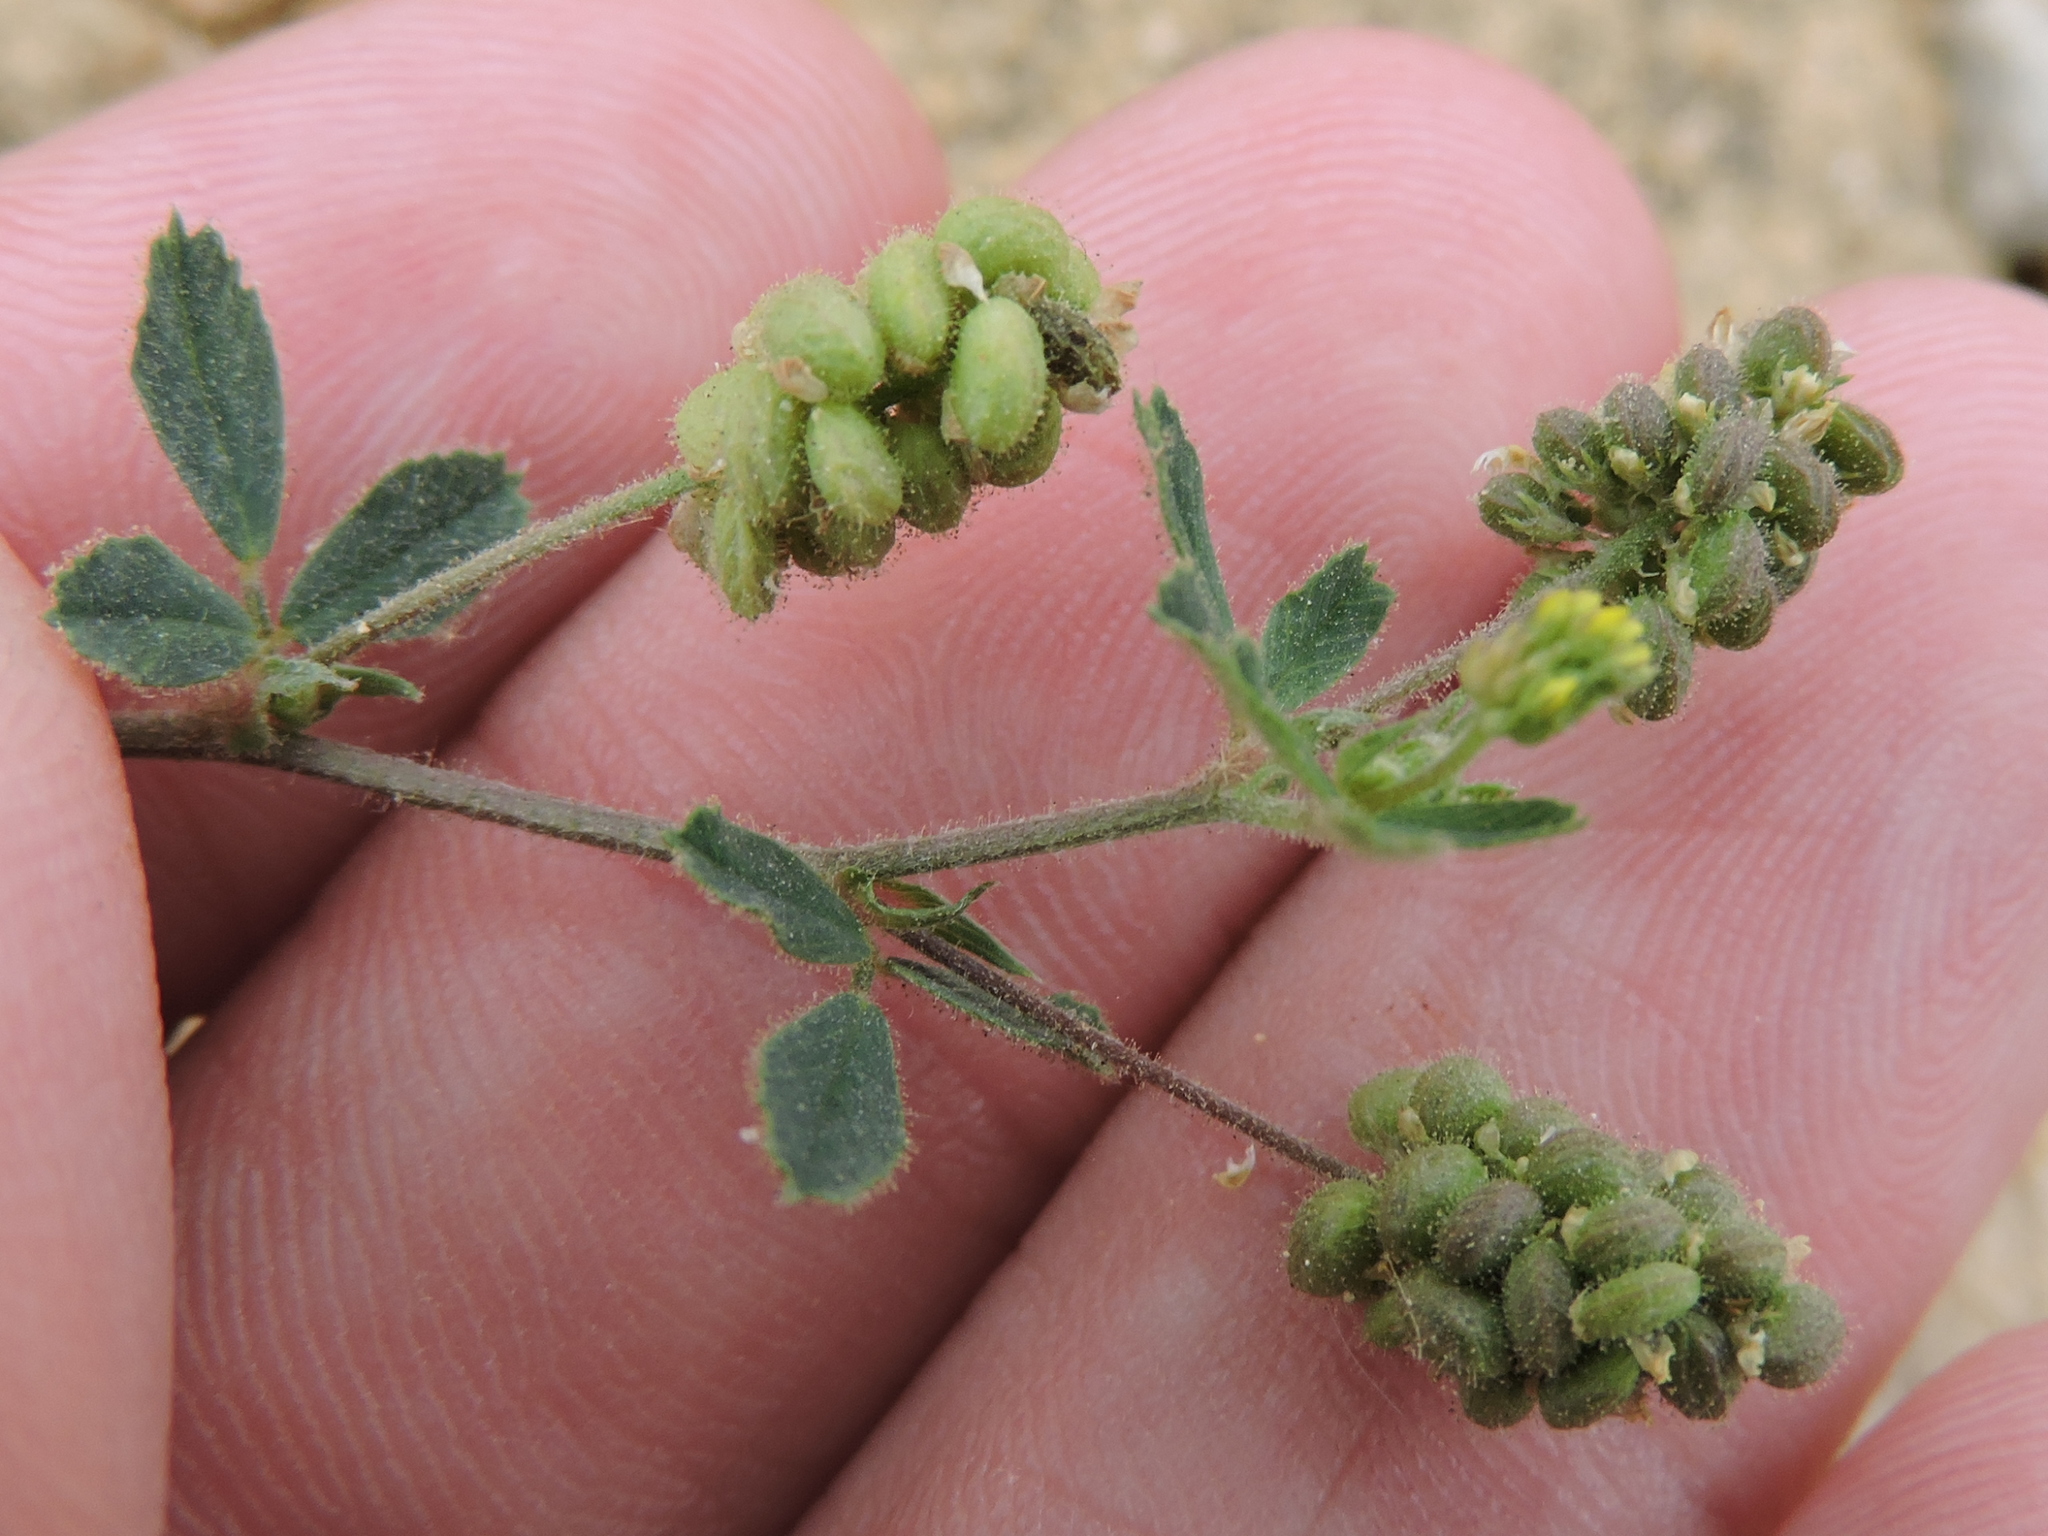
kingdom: Plantae
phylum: Tracheophyta
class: Magnoliopsida
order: Fabales
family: Fabaceae
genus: Medicago
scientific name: Medicago lupulina
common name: Black medick
